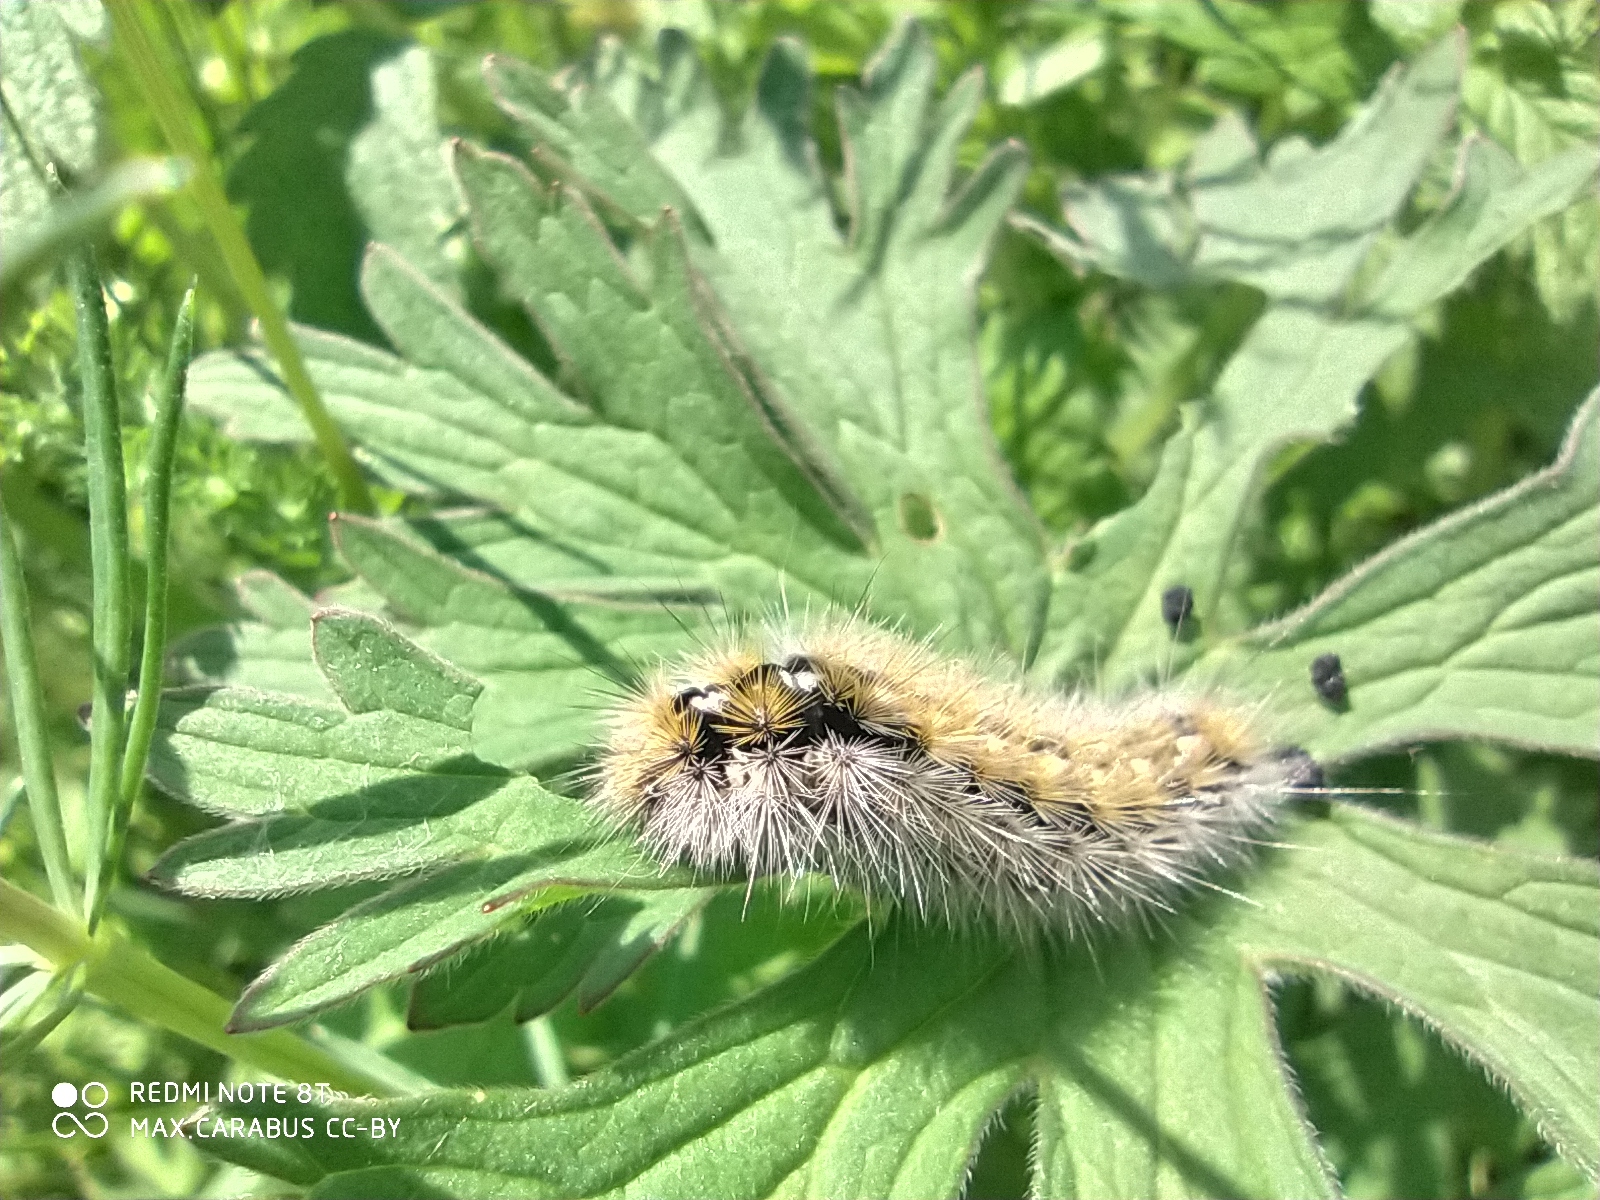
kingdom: Animalia
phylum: Arthropoda
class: Insecta
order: Lepidoptera
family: Erebidae
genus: Rhyparia
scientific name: Rhyparia purpurata
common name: Purple tiger
